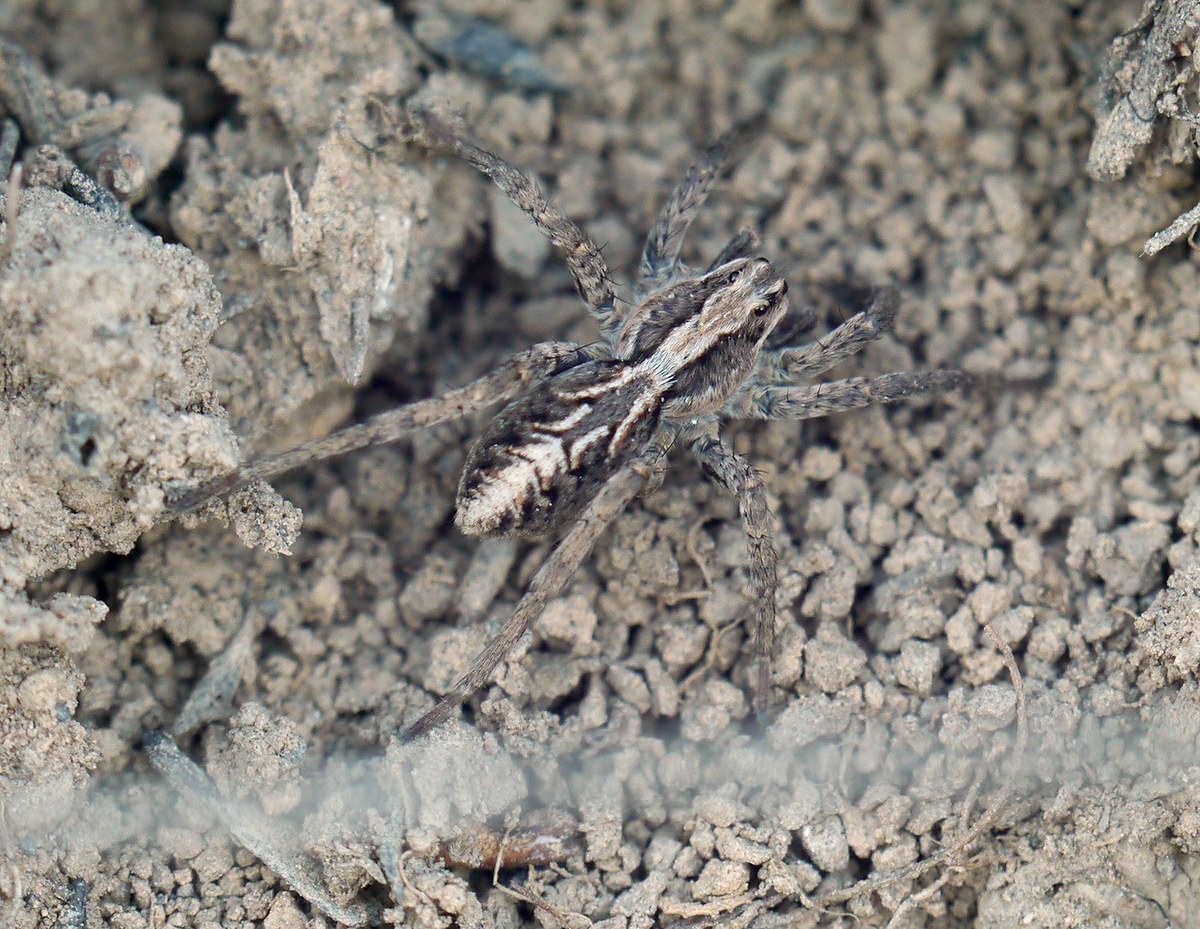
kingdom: Animalia
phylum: Arthropoda
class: Arachnida
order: Araneae
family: Lycosidae
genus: Alopecosa
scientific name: Alopecosa cursor
